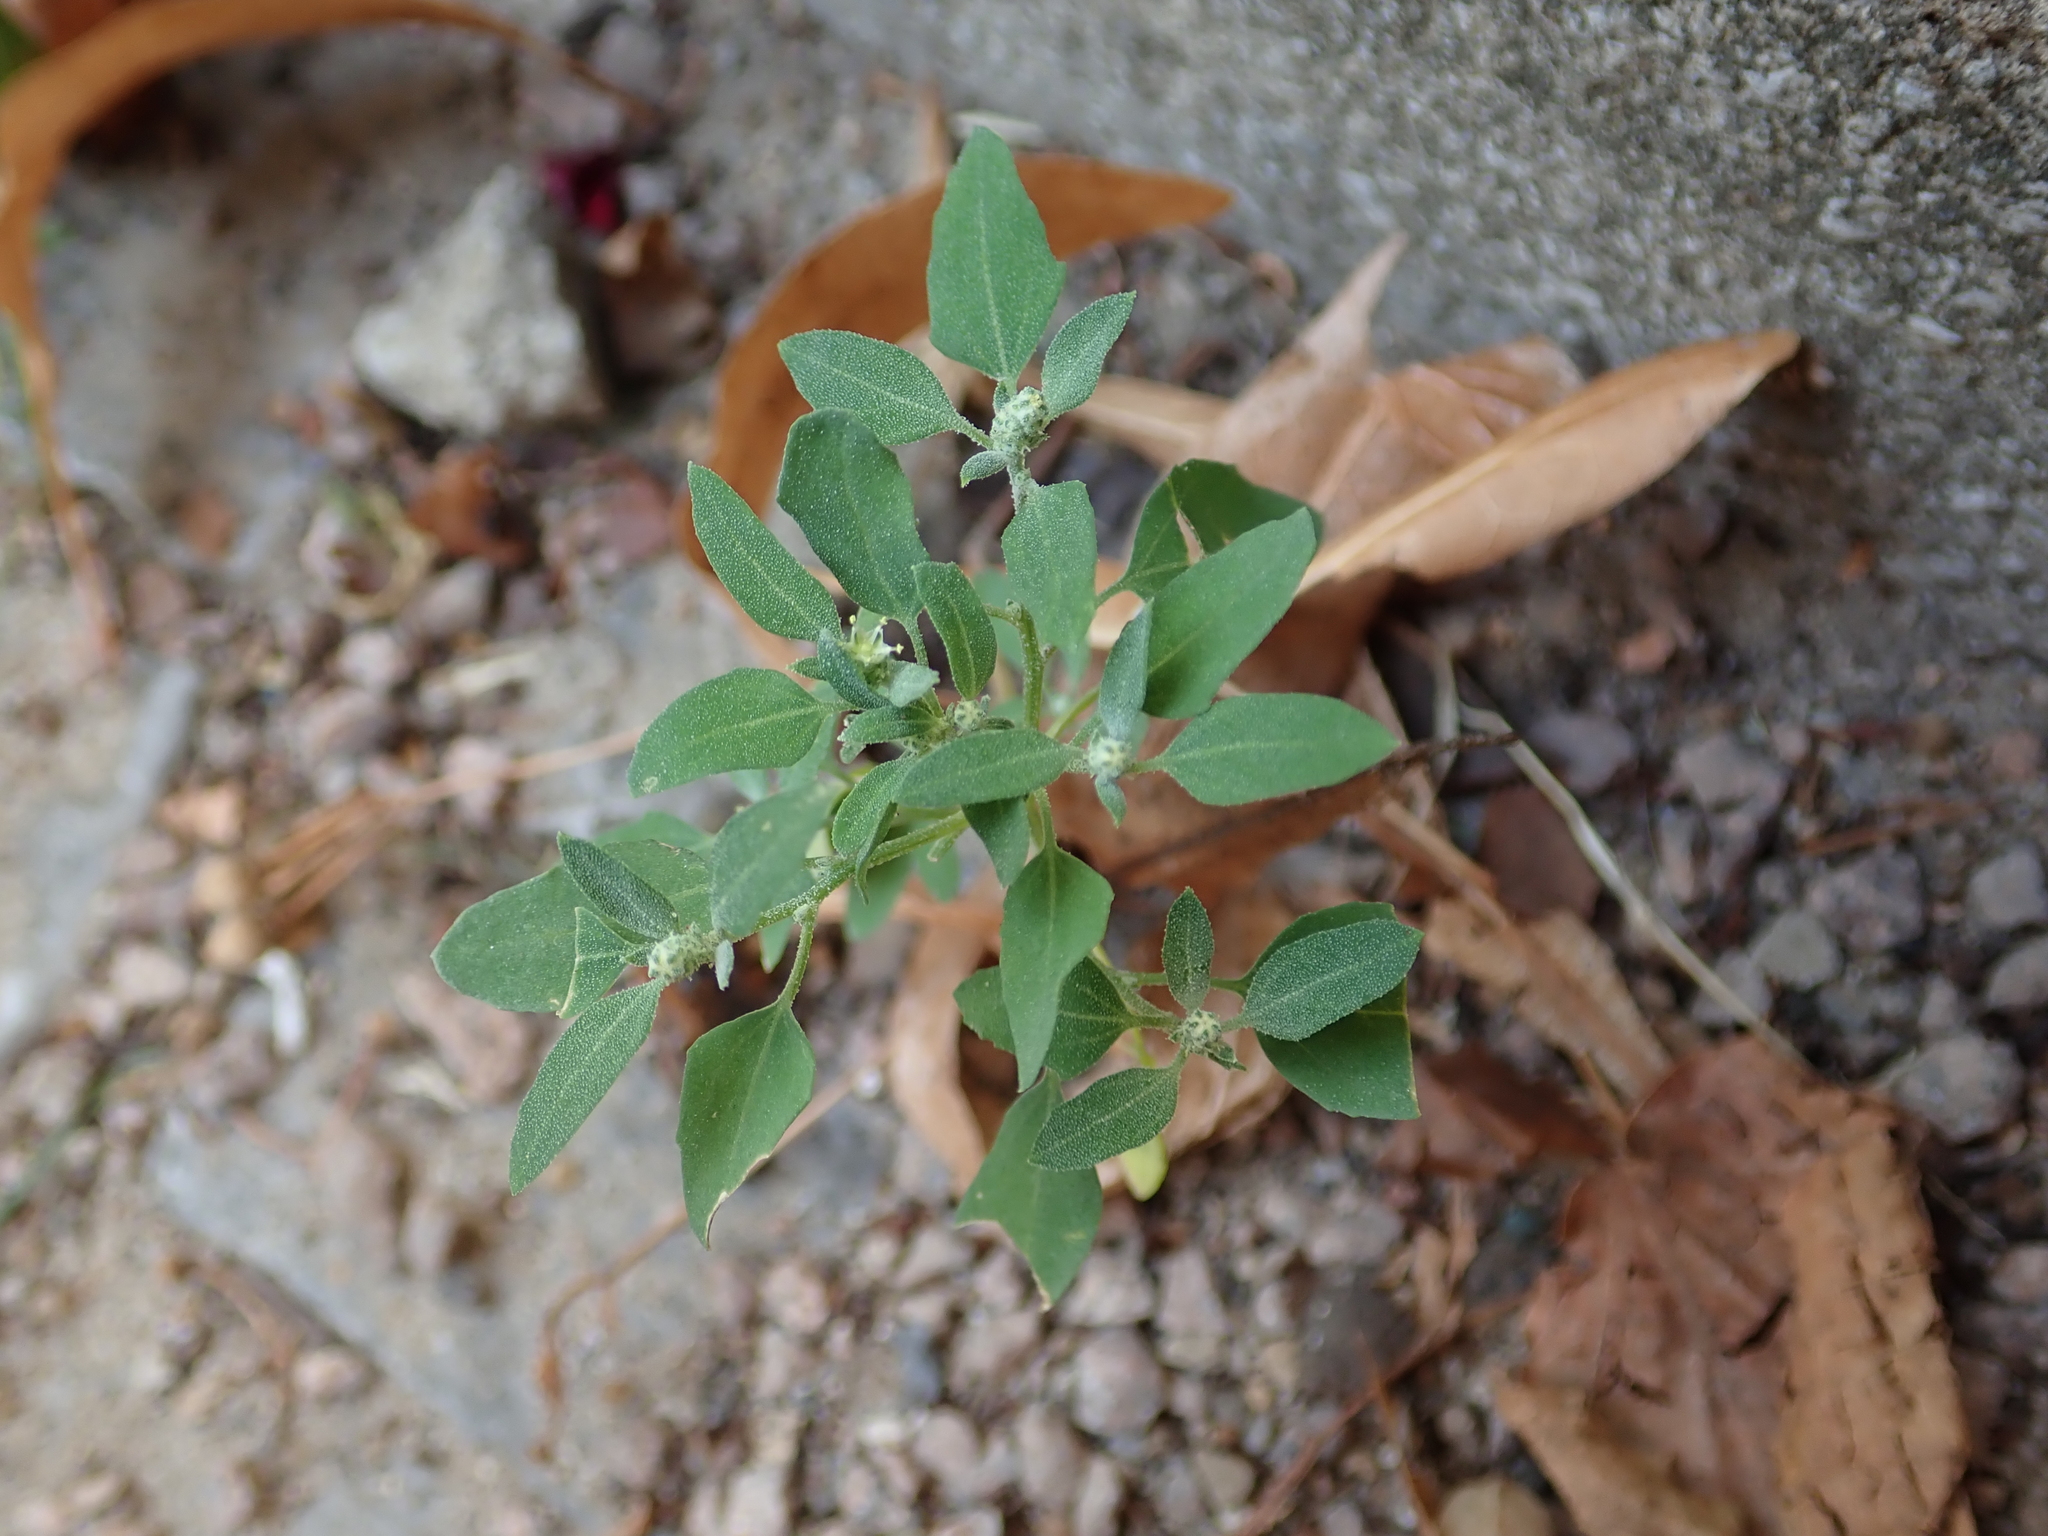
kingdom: Plantae
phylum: Tracheophyta
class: Magnoliopsida
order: Caryophyllales
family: Amaranthaceae
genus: Chenopodium
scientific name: Chenopodium album
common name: Fat-hen
